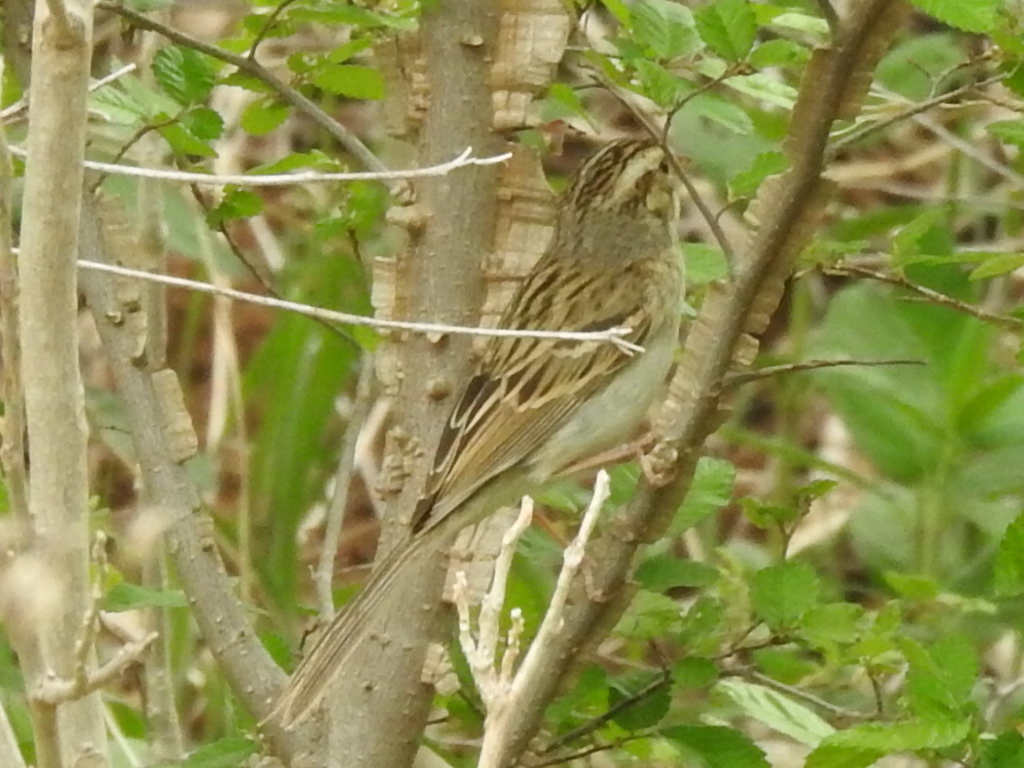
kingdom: Animalia
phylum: Chordata
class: Aves
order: Passeriformes
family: Passerellidae
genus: Spizella
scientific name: Spizella pallida
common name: Clay-colored sparrow
